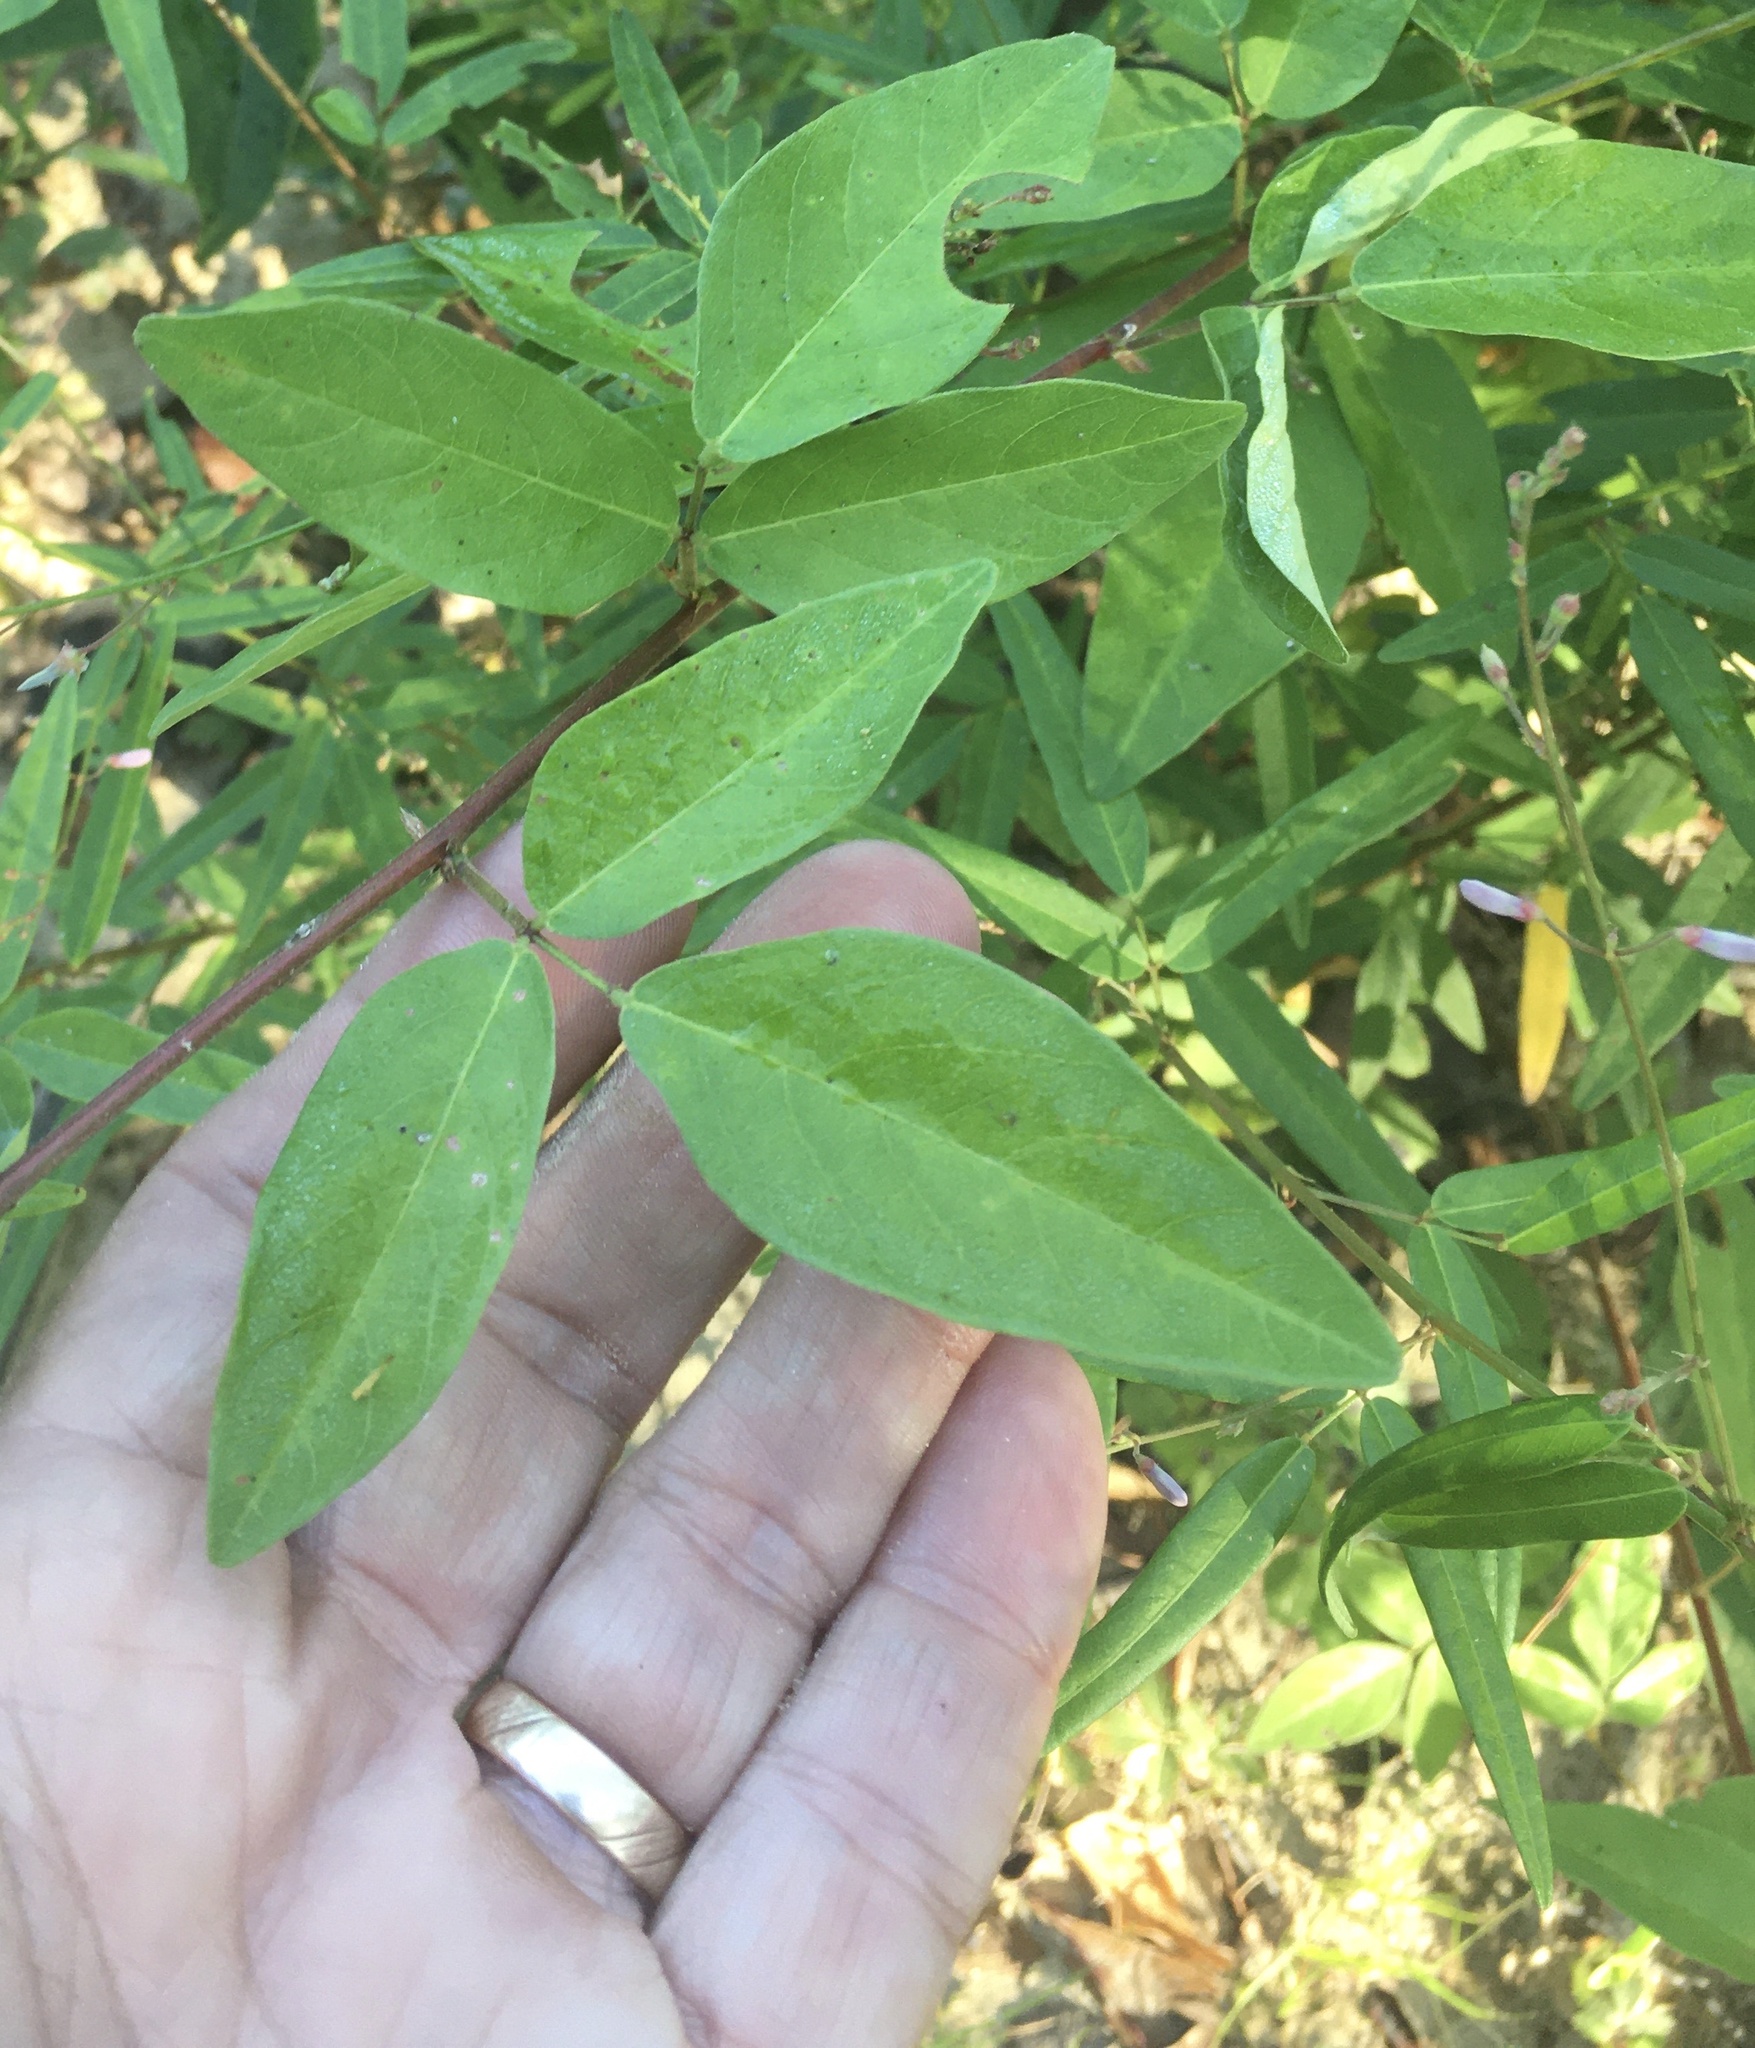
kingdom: Plantae
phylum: Tracheophyta
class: Magnoliopsida
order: Fabales
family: Fabaceae
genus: Desmodium
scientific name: Desmodium viridiflorum
